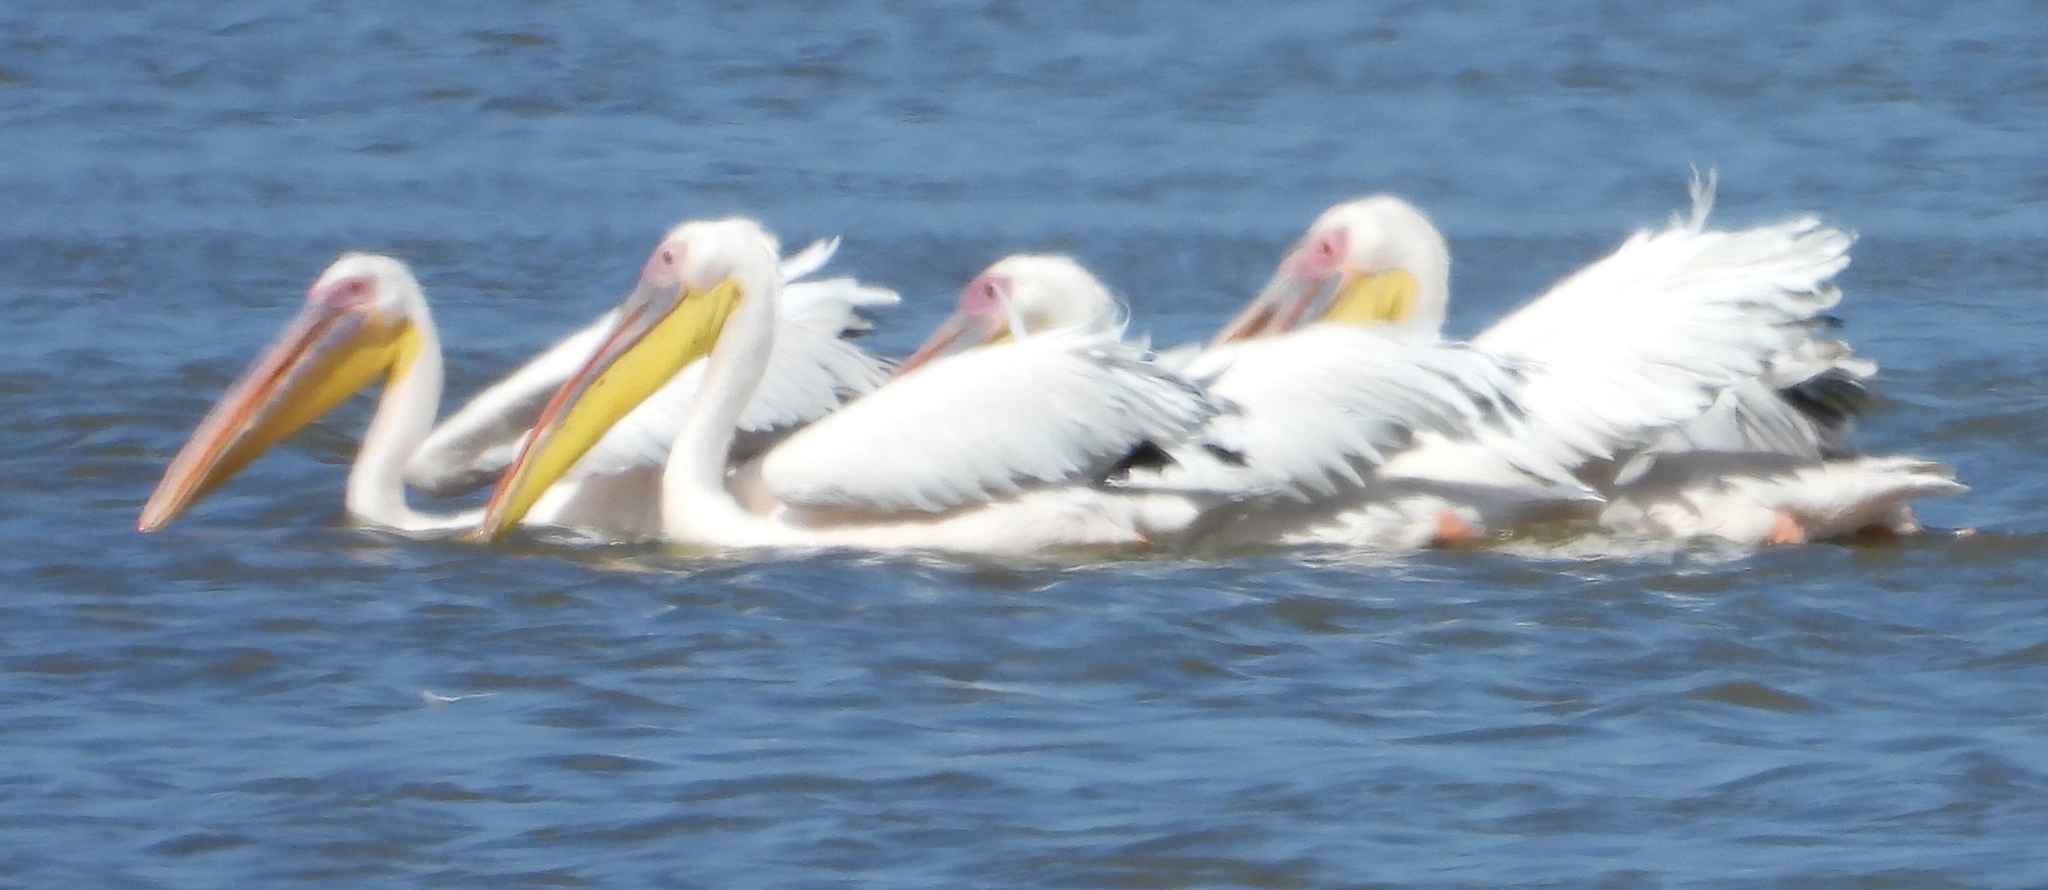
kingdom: Animalia
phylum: Chordata
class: Aves
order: Pelecaniformes
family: Pelecanidae
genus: Pelecanus
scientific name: Pelecanus onocrotalus
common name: Great white pelican
